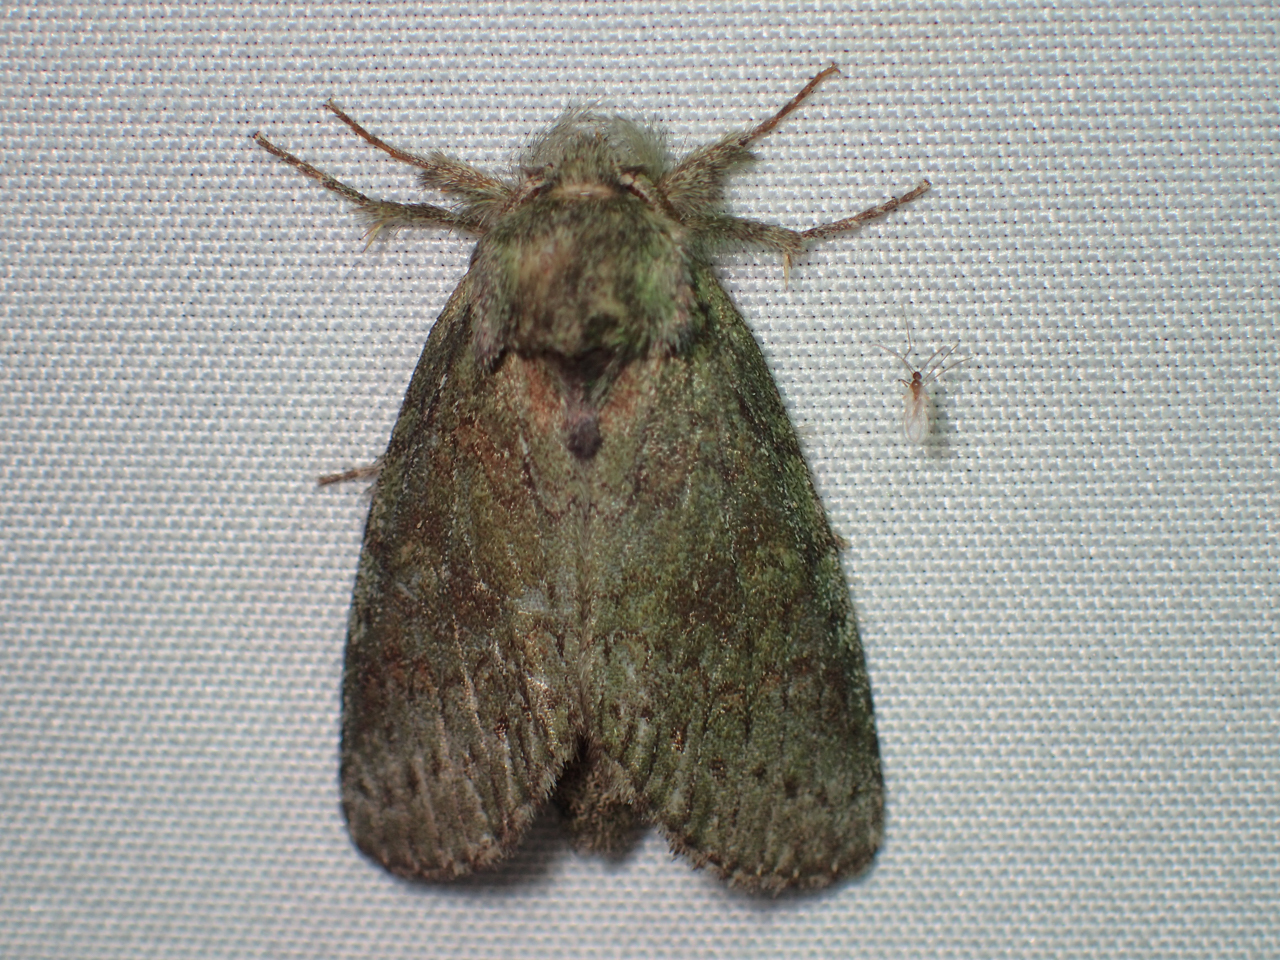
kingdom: Animalia
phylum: Arthropoda
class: Insecta
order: Lepidoptera
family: Notodontidae
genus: Disphragis
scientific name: Disphragis Cecrita biundata
